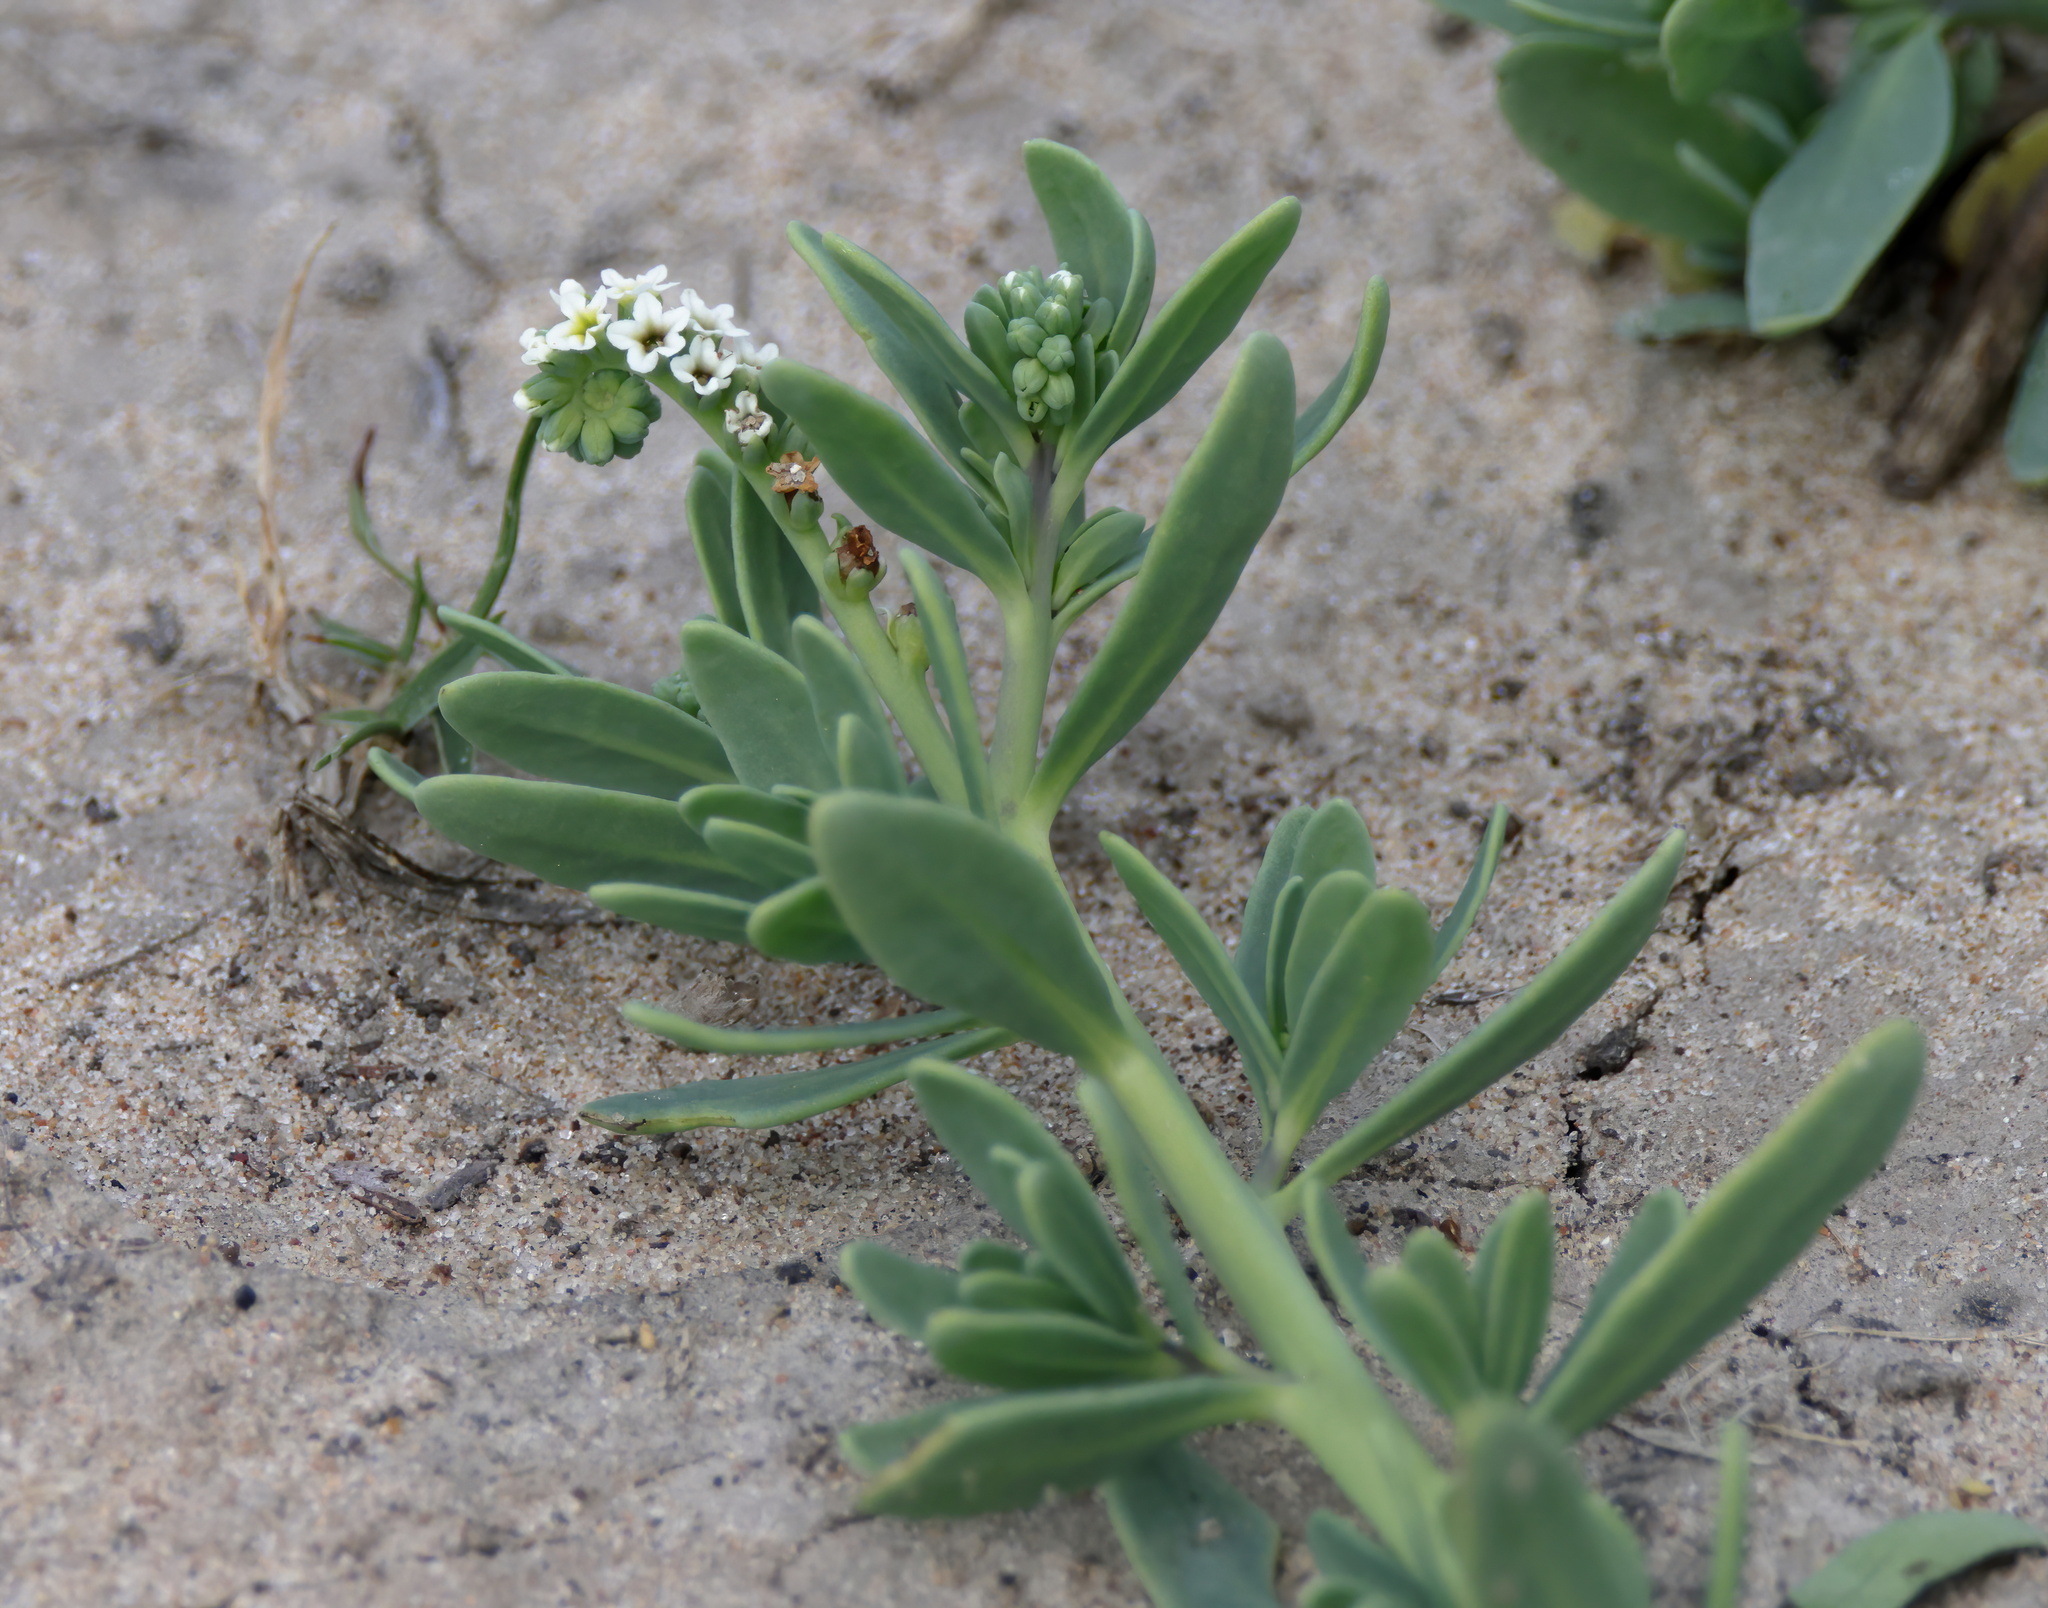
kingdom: Plantae
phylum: Tracheophyta
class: Magnoliopsida
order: Boraginales
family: Heliotropiaceae
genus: Heliotropium
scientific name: Heliotropium curassavicum
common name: Seaside heliotrope
